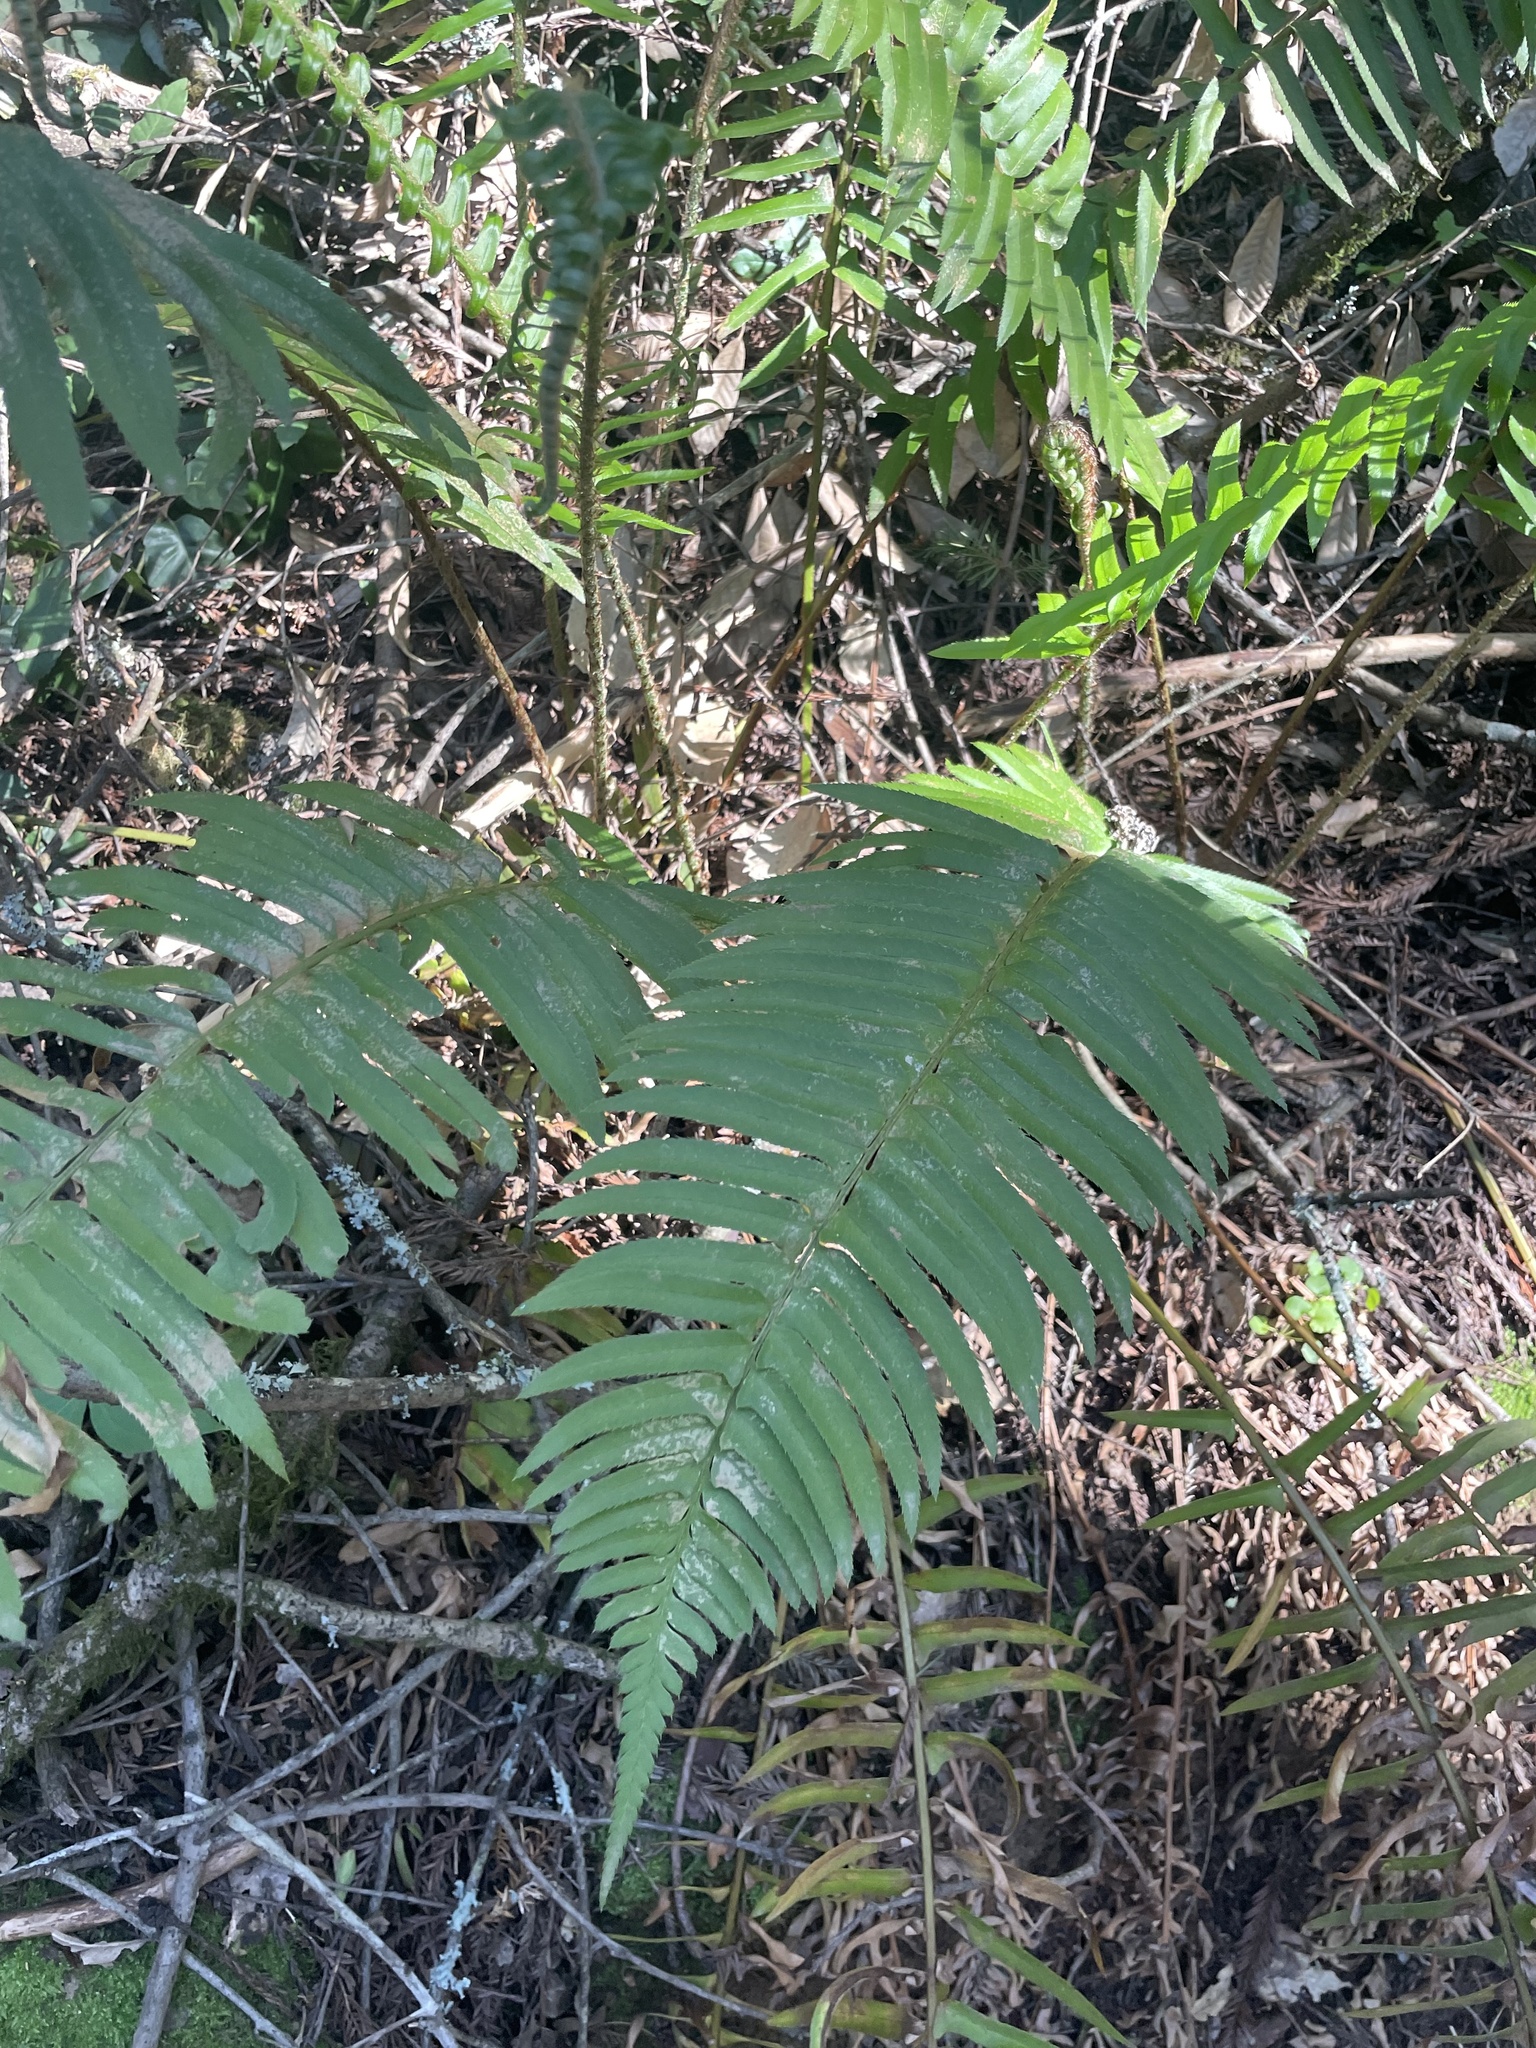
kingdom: Plantae
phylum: Tracheophyta
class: Polypodiopsida
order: Polypodiales
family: Dryopteridaceae
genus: Polystichum
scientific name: Polystichum munitum
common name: Western sword-fern
